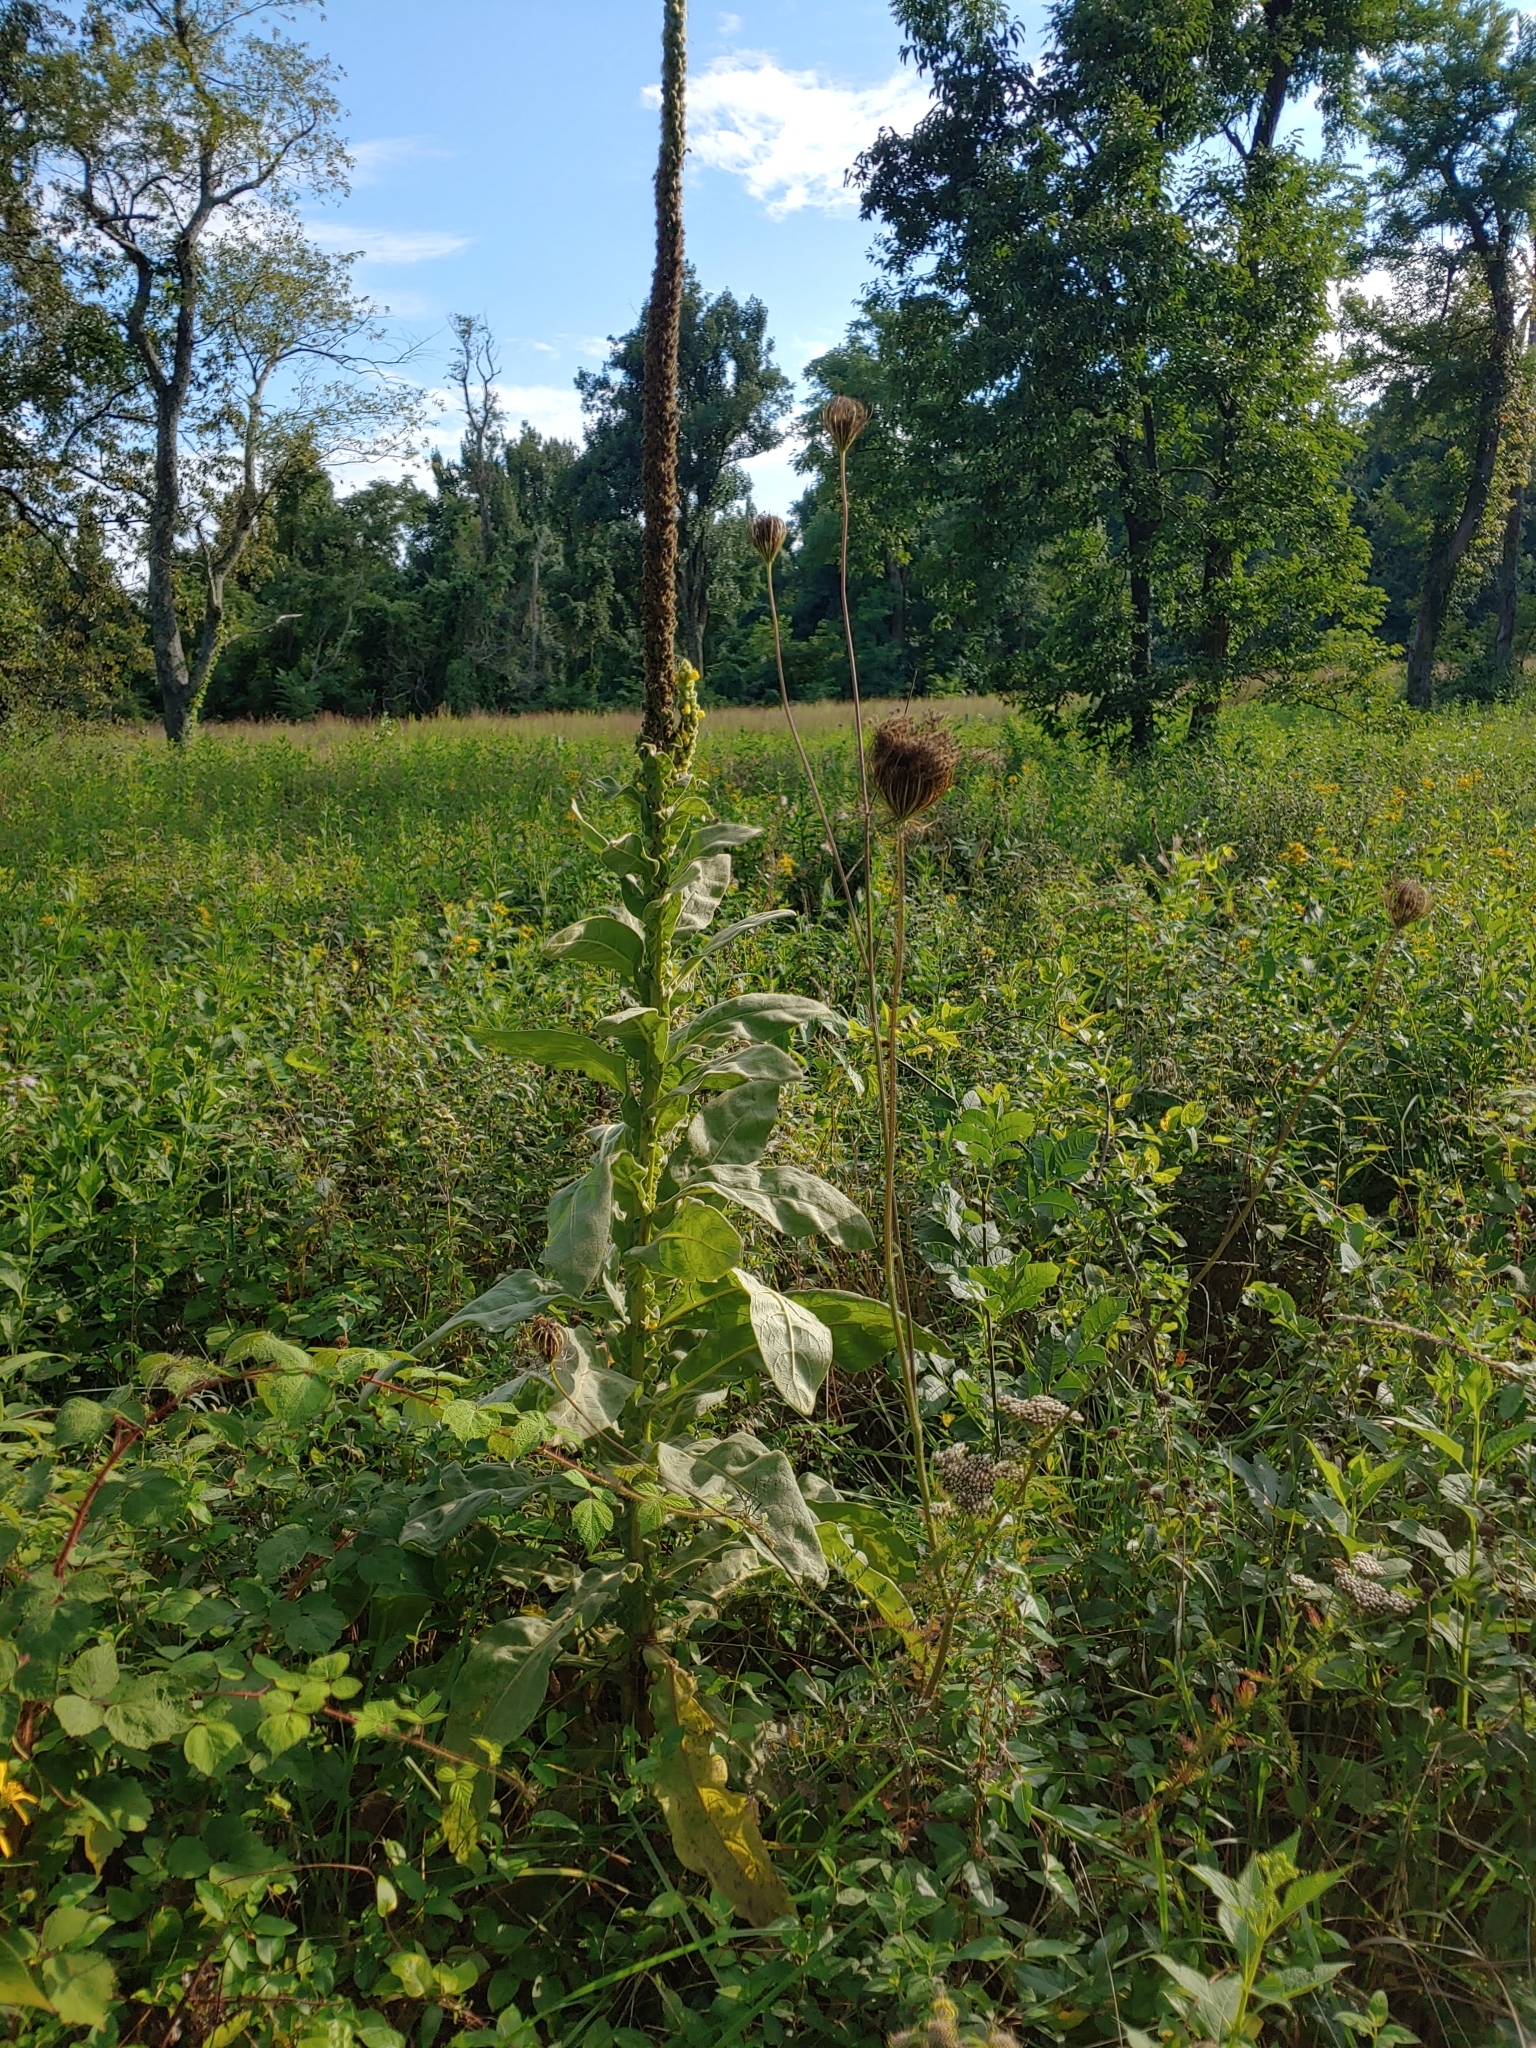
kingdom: Plantae
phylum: Tracheophyta
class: Magnoliopsida
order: Lamiales
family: Scrophulariaceae
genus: Verbascum
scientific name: Verbascum thapsus
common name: Common mullein
